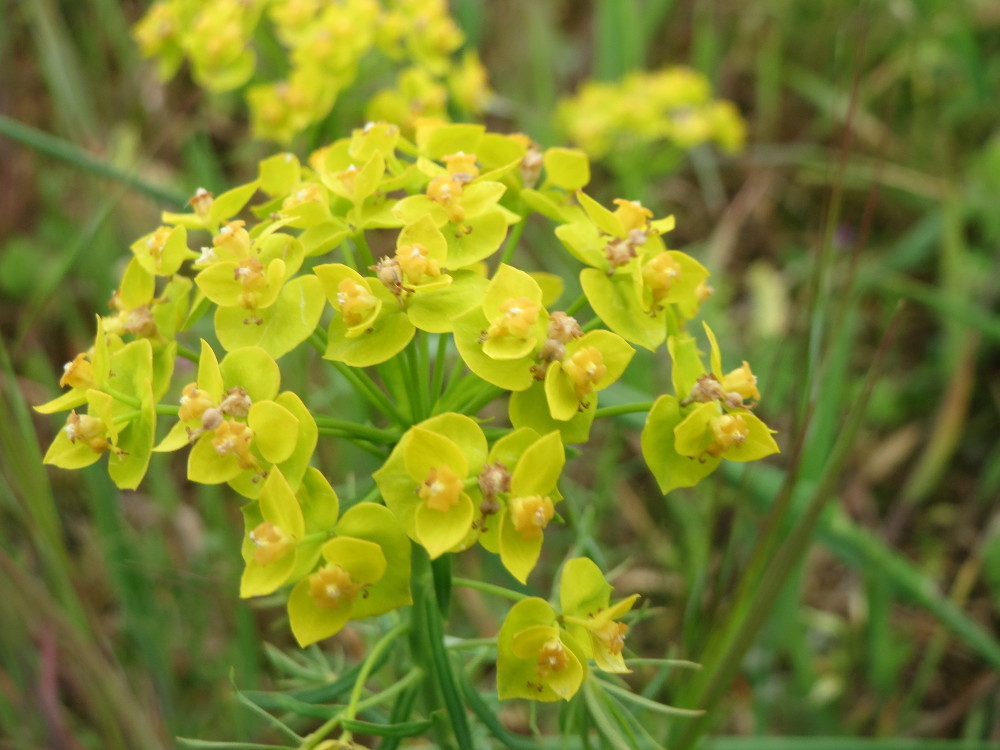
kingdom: Plantae
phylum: Tracheophyta
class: Magnoliopsida
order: Malpighiales
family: Euphorbiaceae
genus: Euphorbia
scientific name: Euphorbia cyparissias
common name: Cypress spurge
